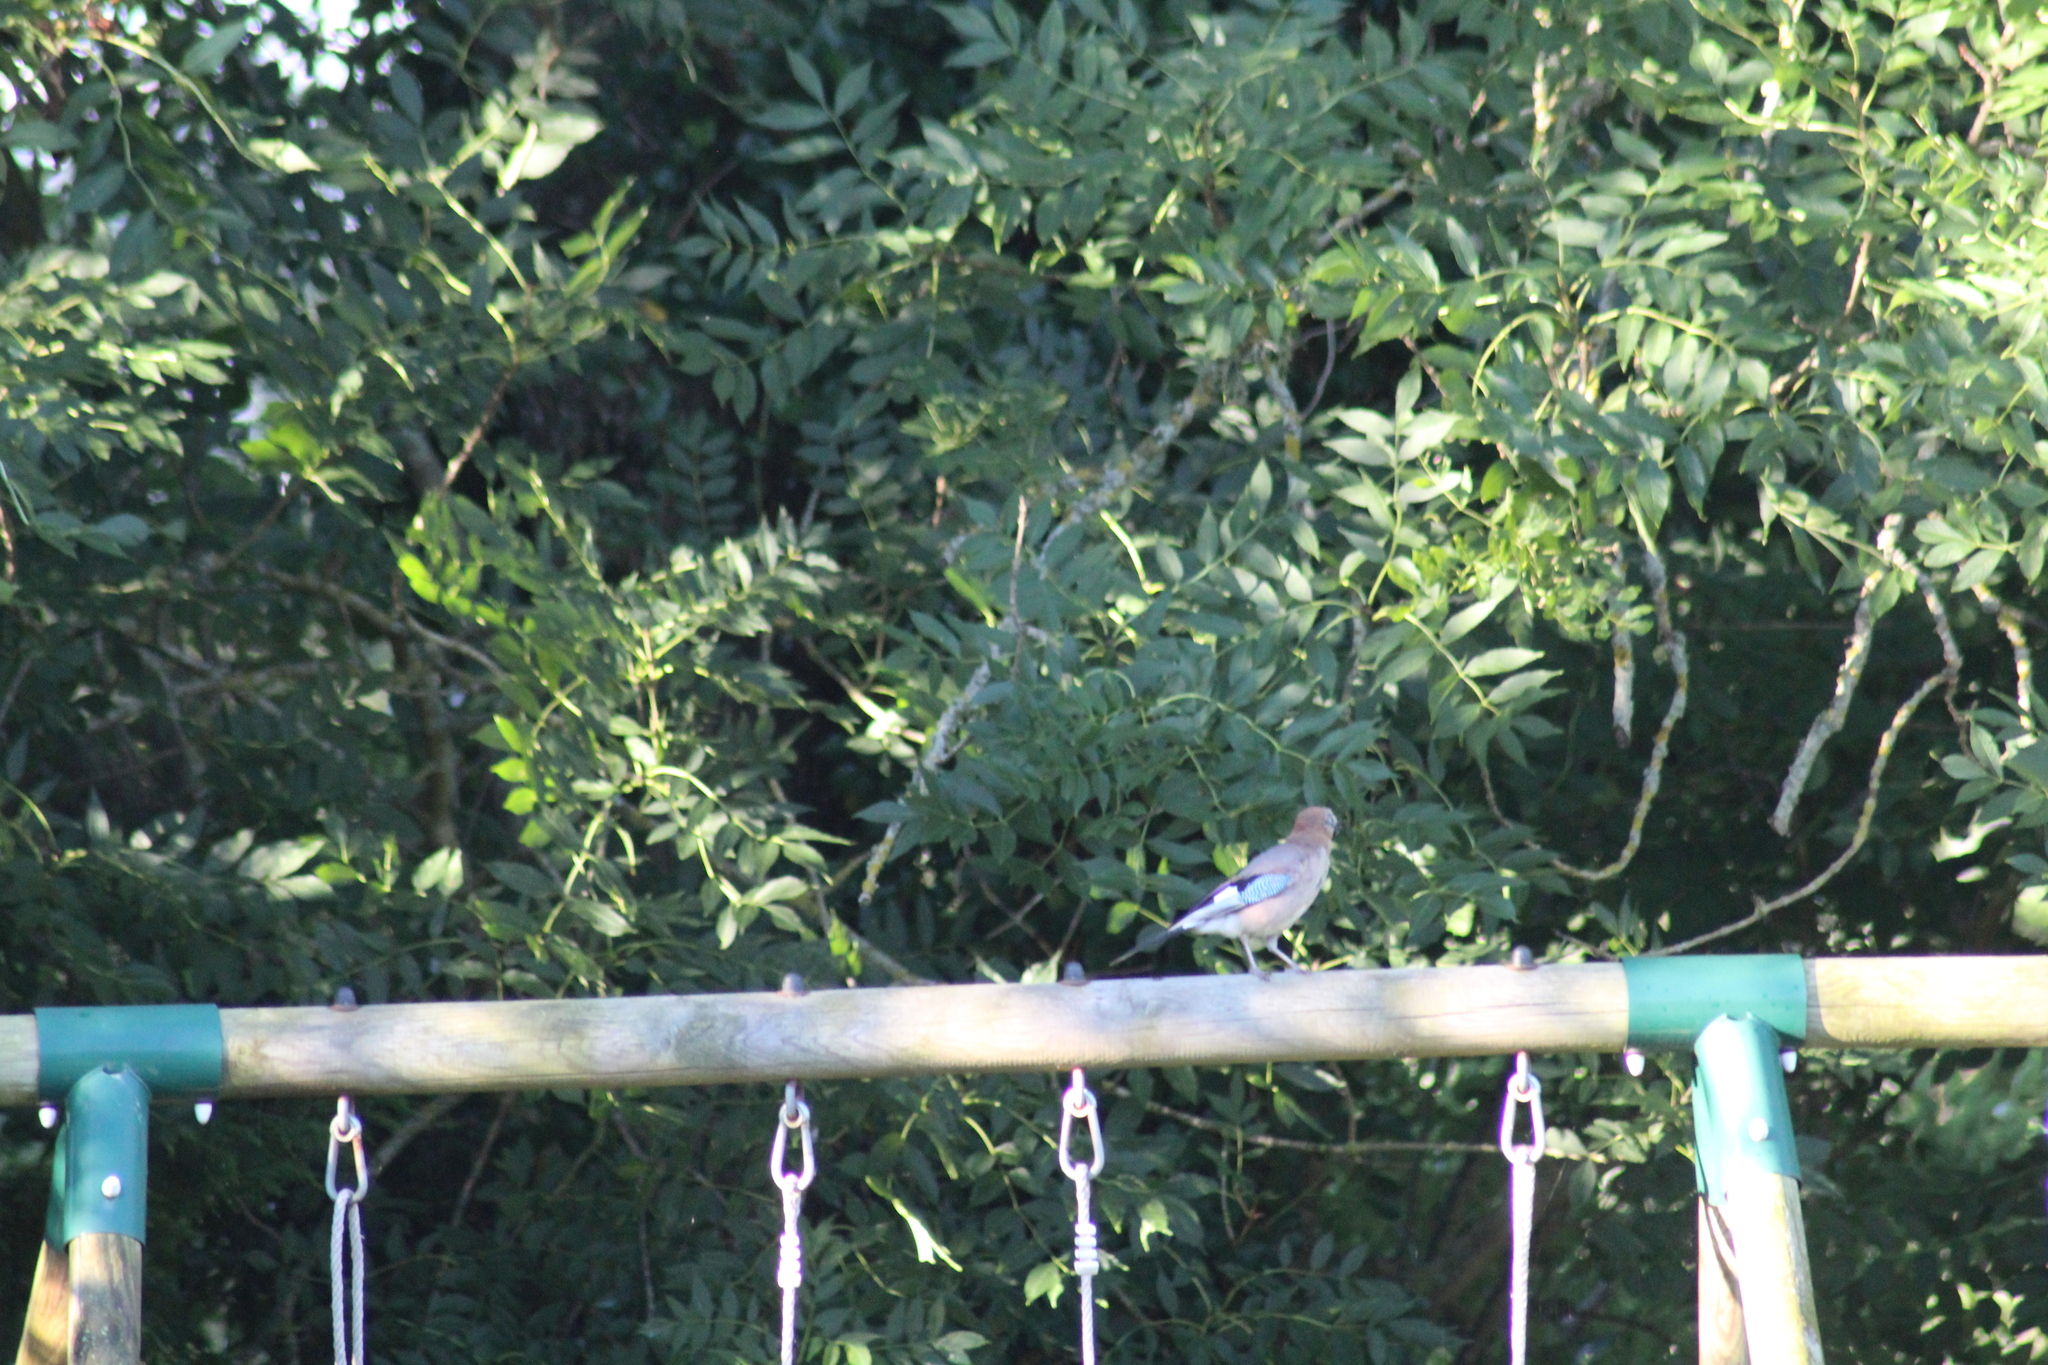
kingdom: Animalia
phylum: Chordata
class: Aves
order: Passeriformes
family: Corvidae
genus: Garrulus
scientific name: Garrulus glandarius
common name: Eurasian jay
